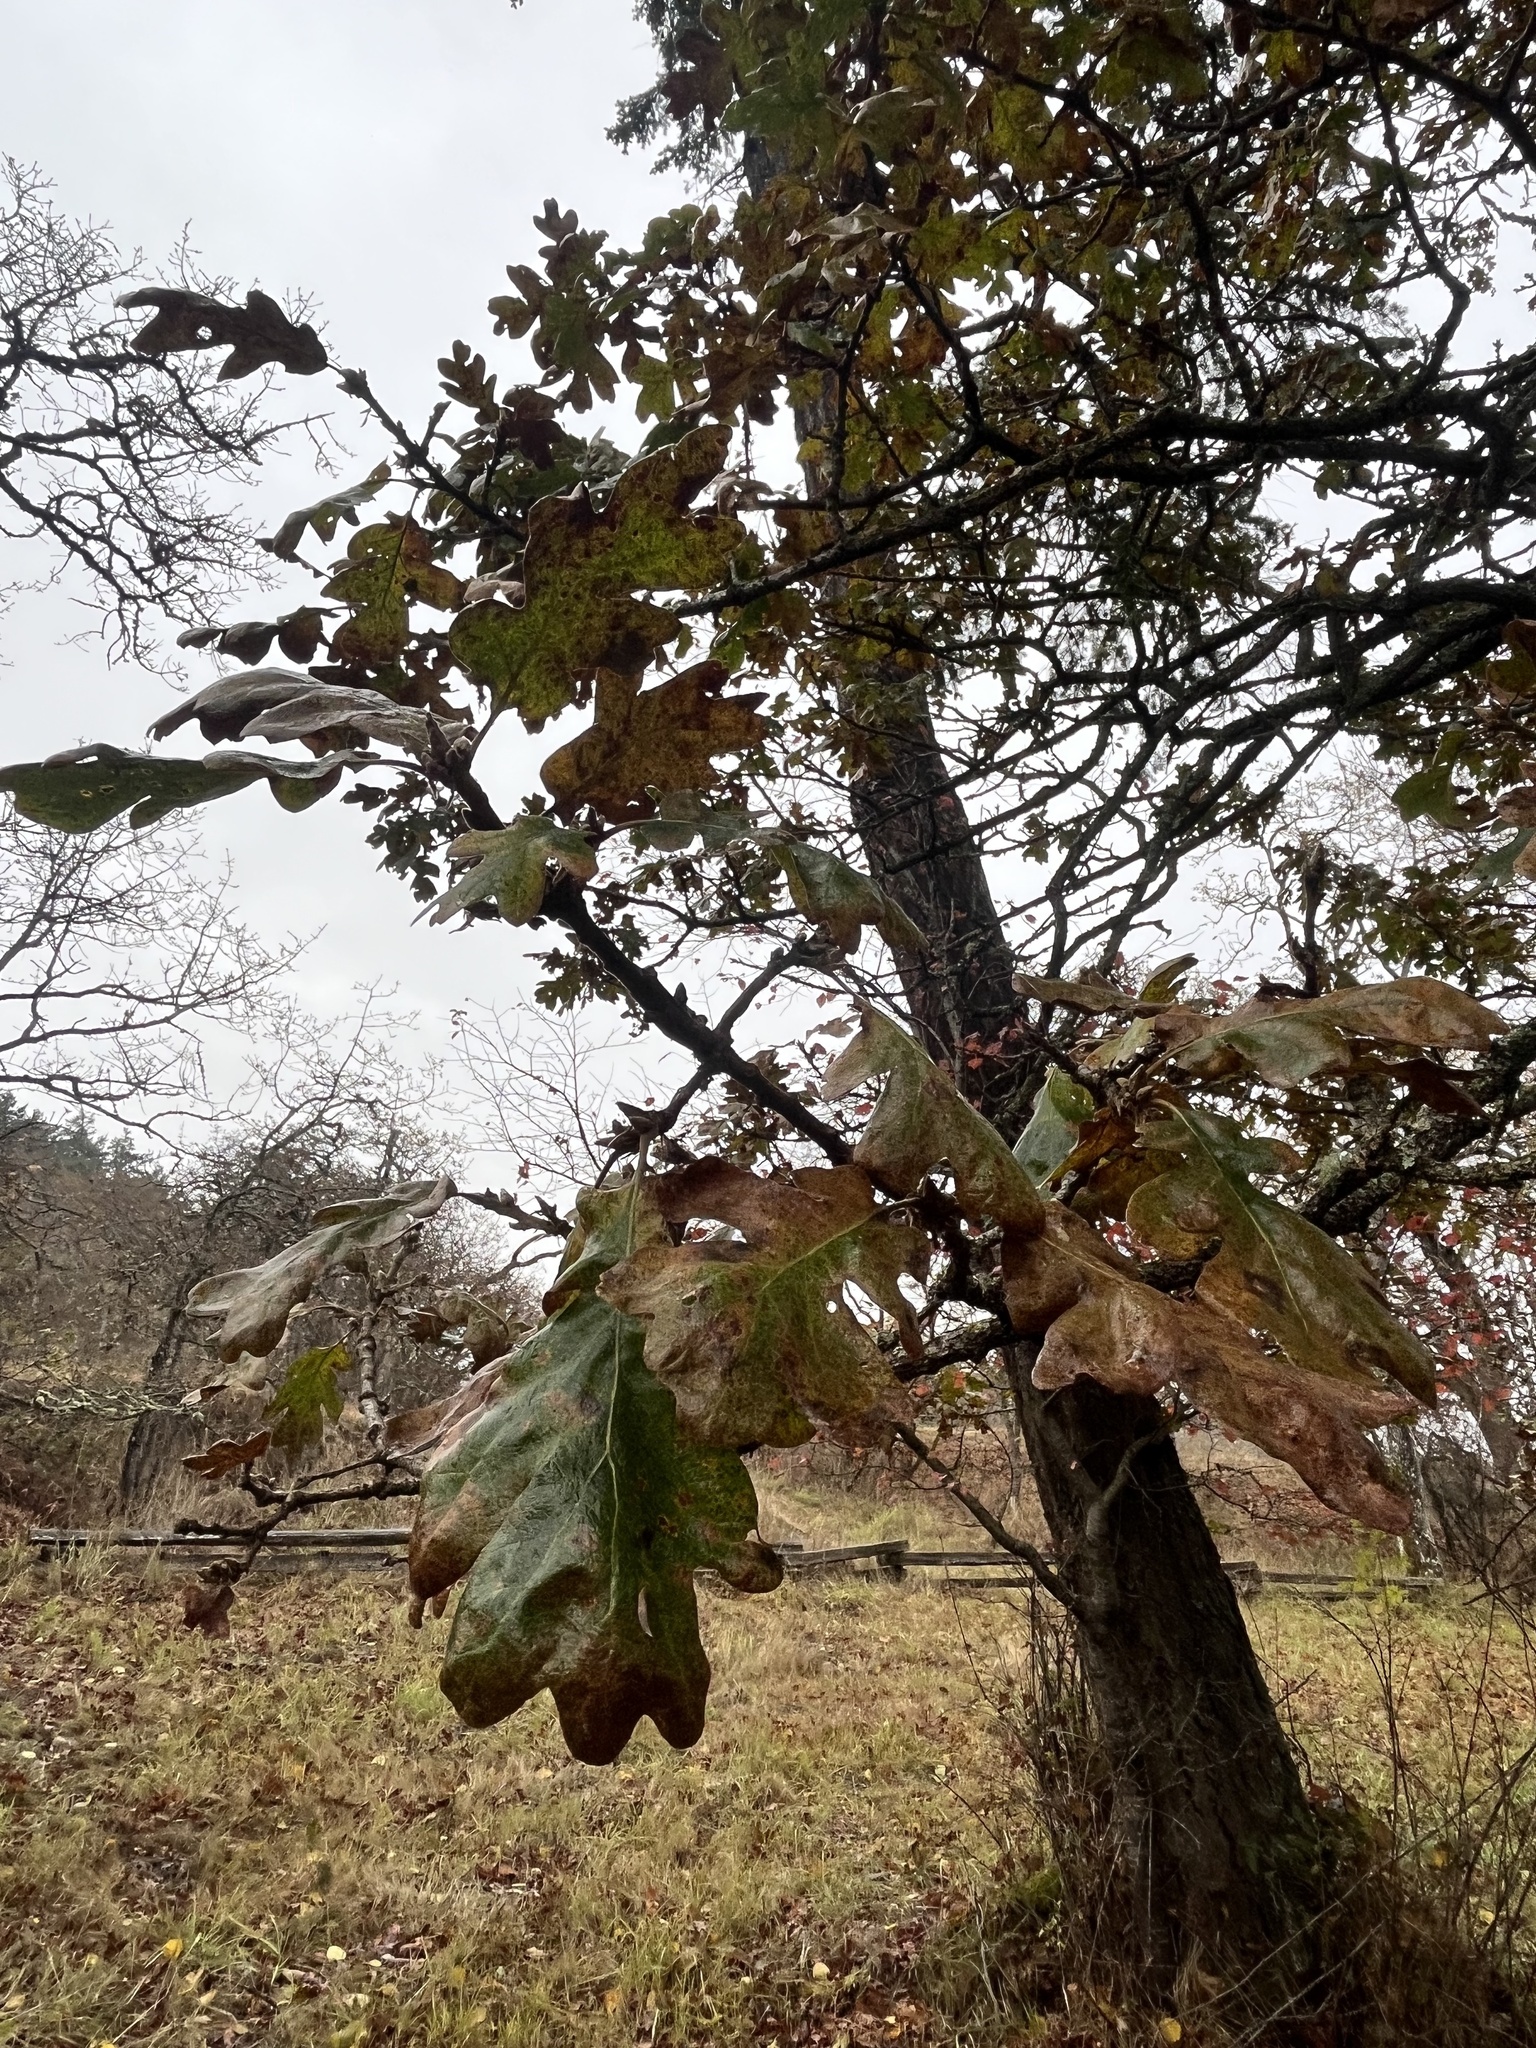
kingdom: Plantae
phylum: Tracheophyta
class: Magnoliopsida
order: Fagales
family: Fagaceae
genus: Quercus
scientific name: Quercus garryana
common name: Garry oak
